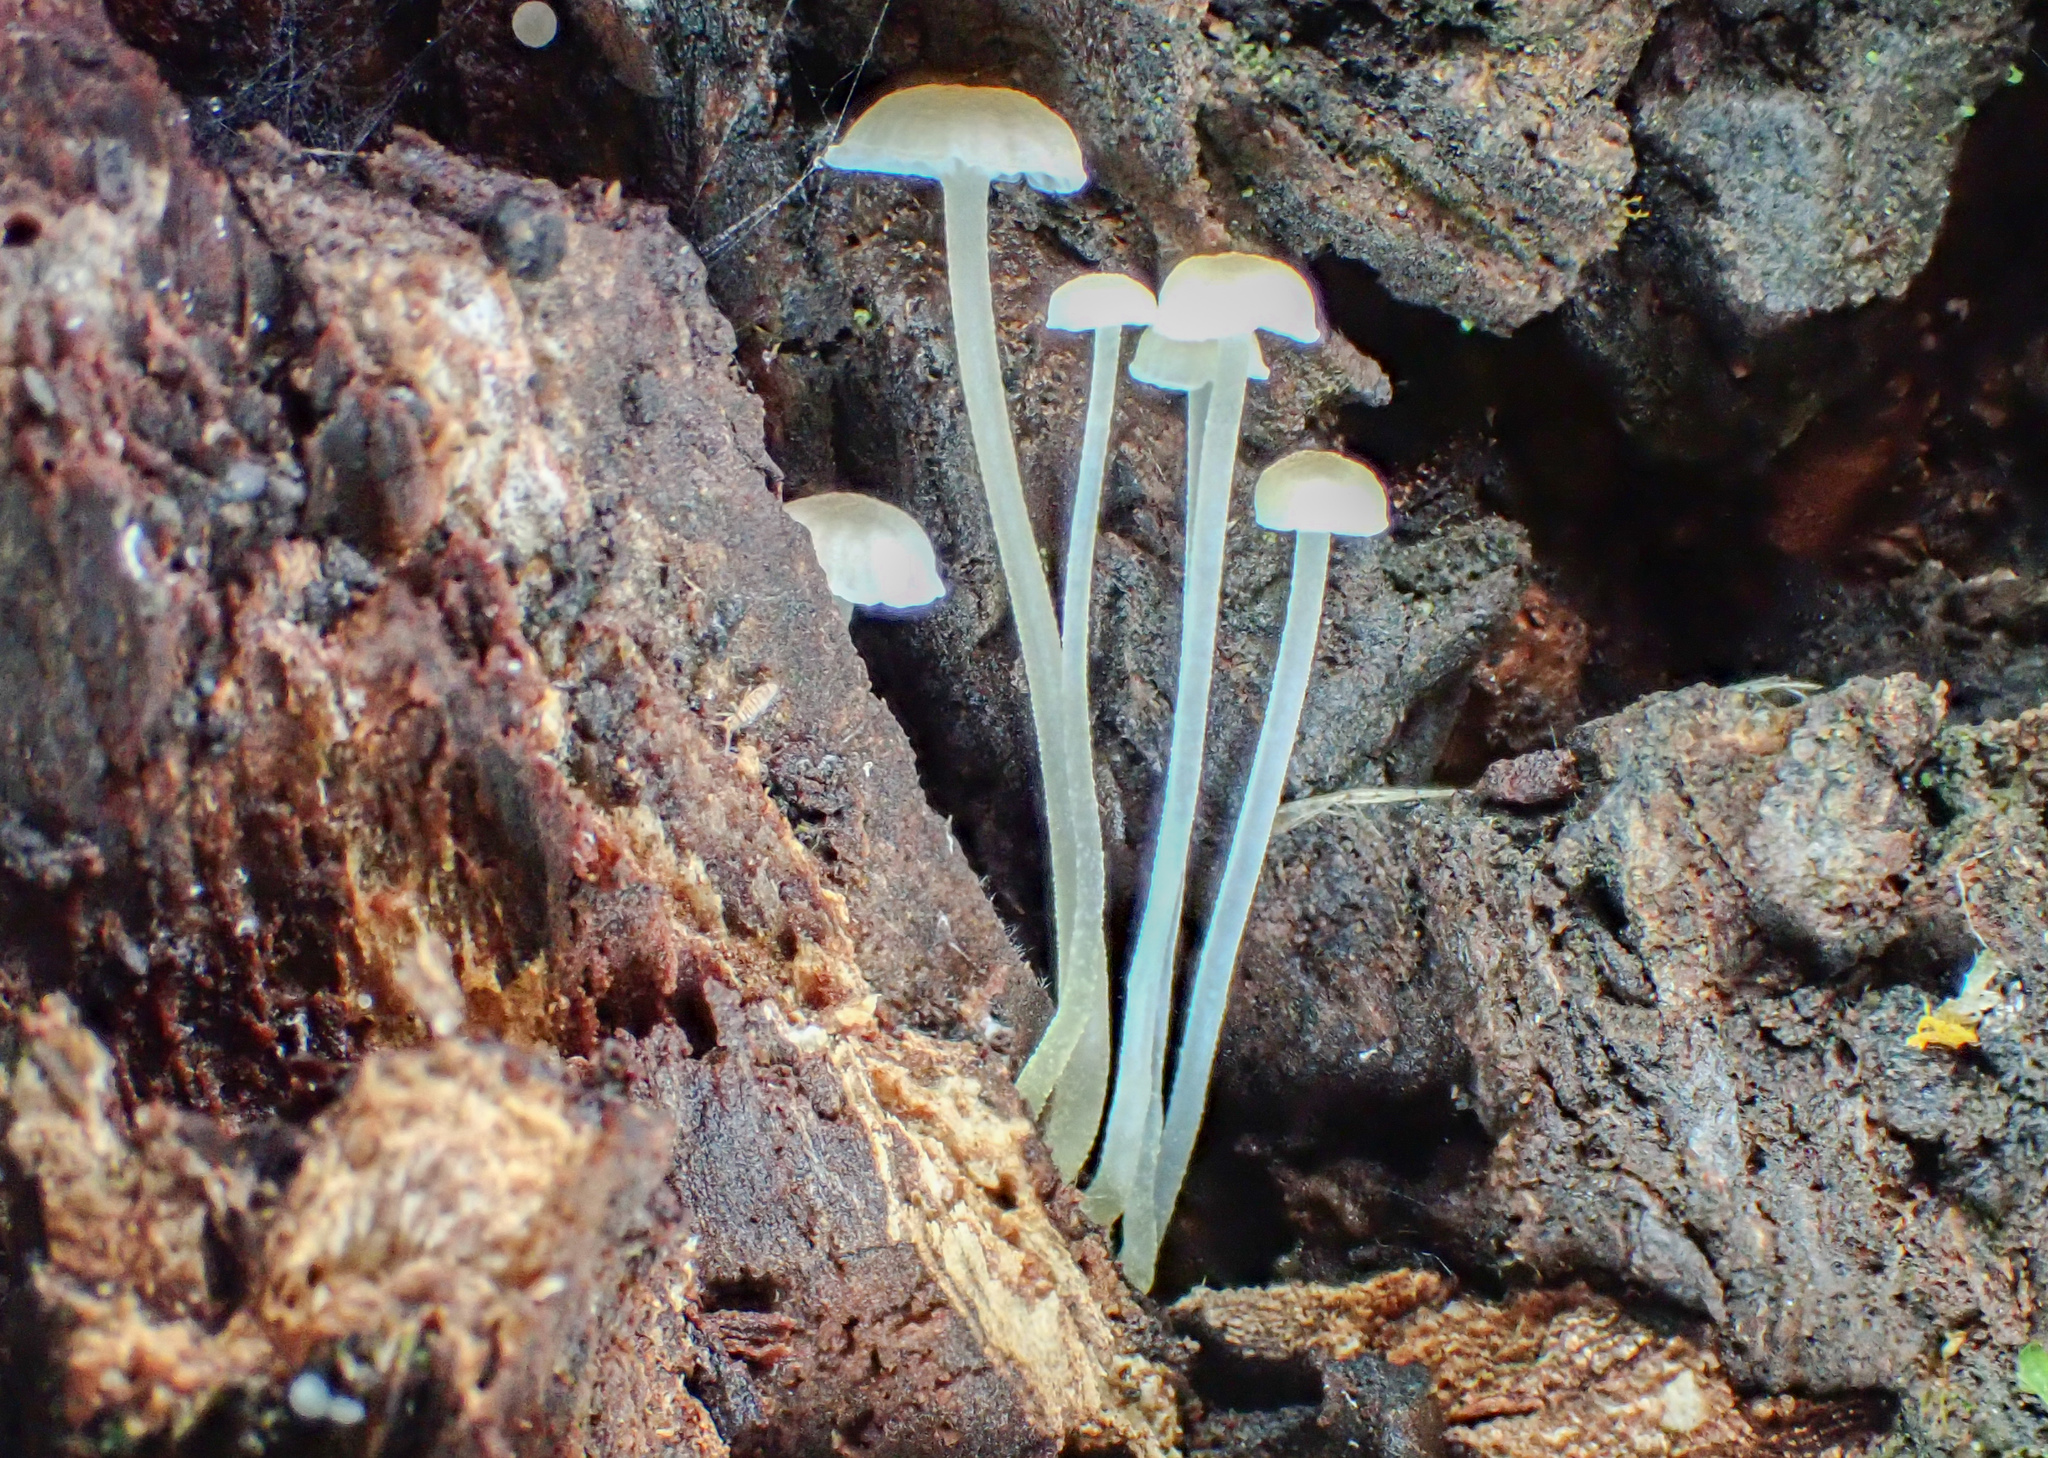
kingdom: Fungi
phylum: Basidiomycota
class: Agaricomycetes
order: Agaricales
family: Mycenaceae
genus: Hemimycena
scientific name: Hemimycena
